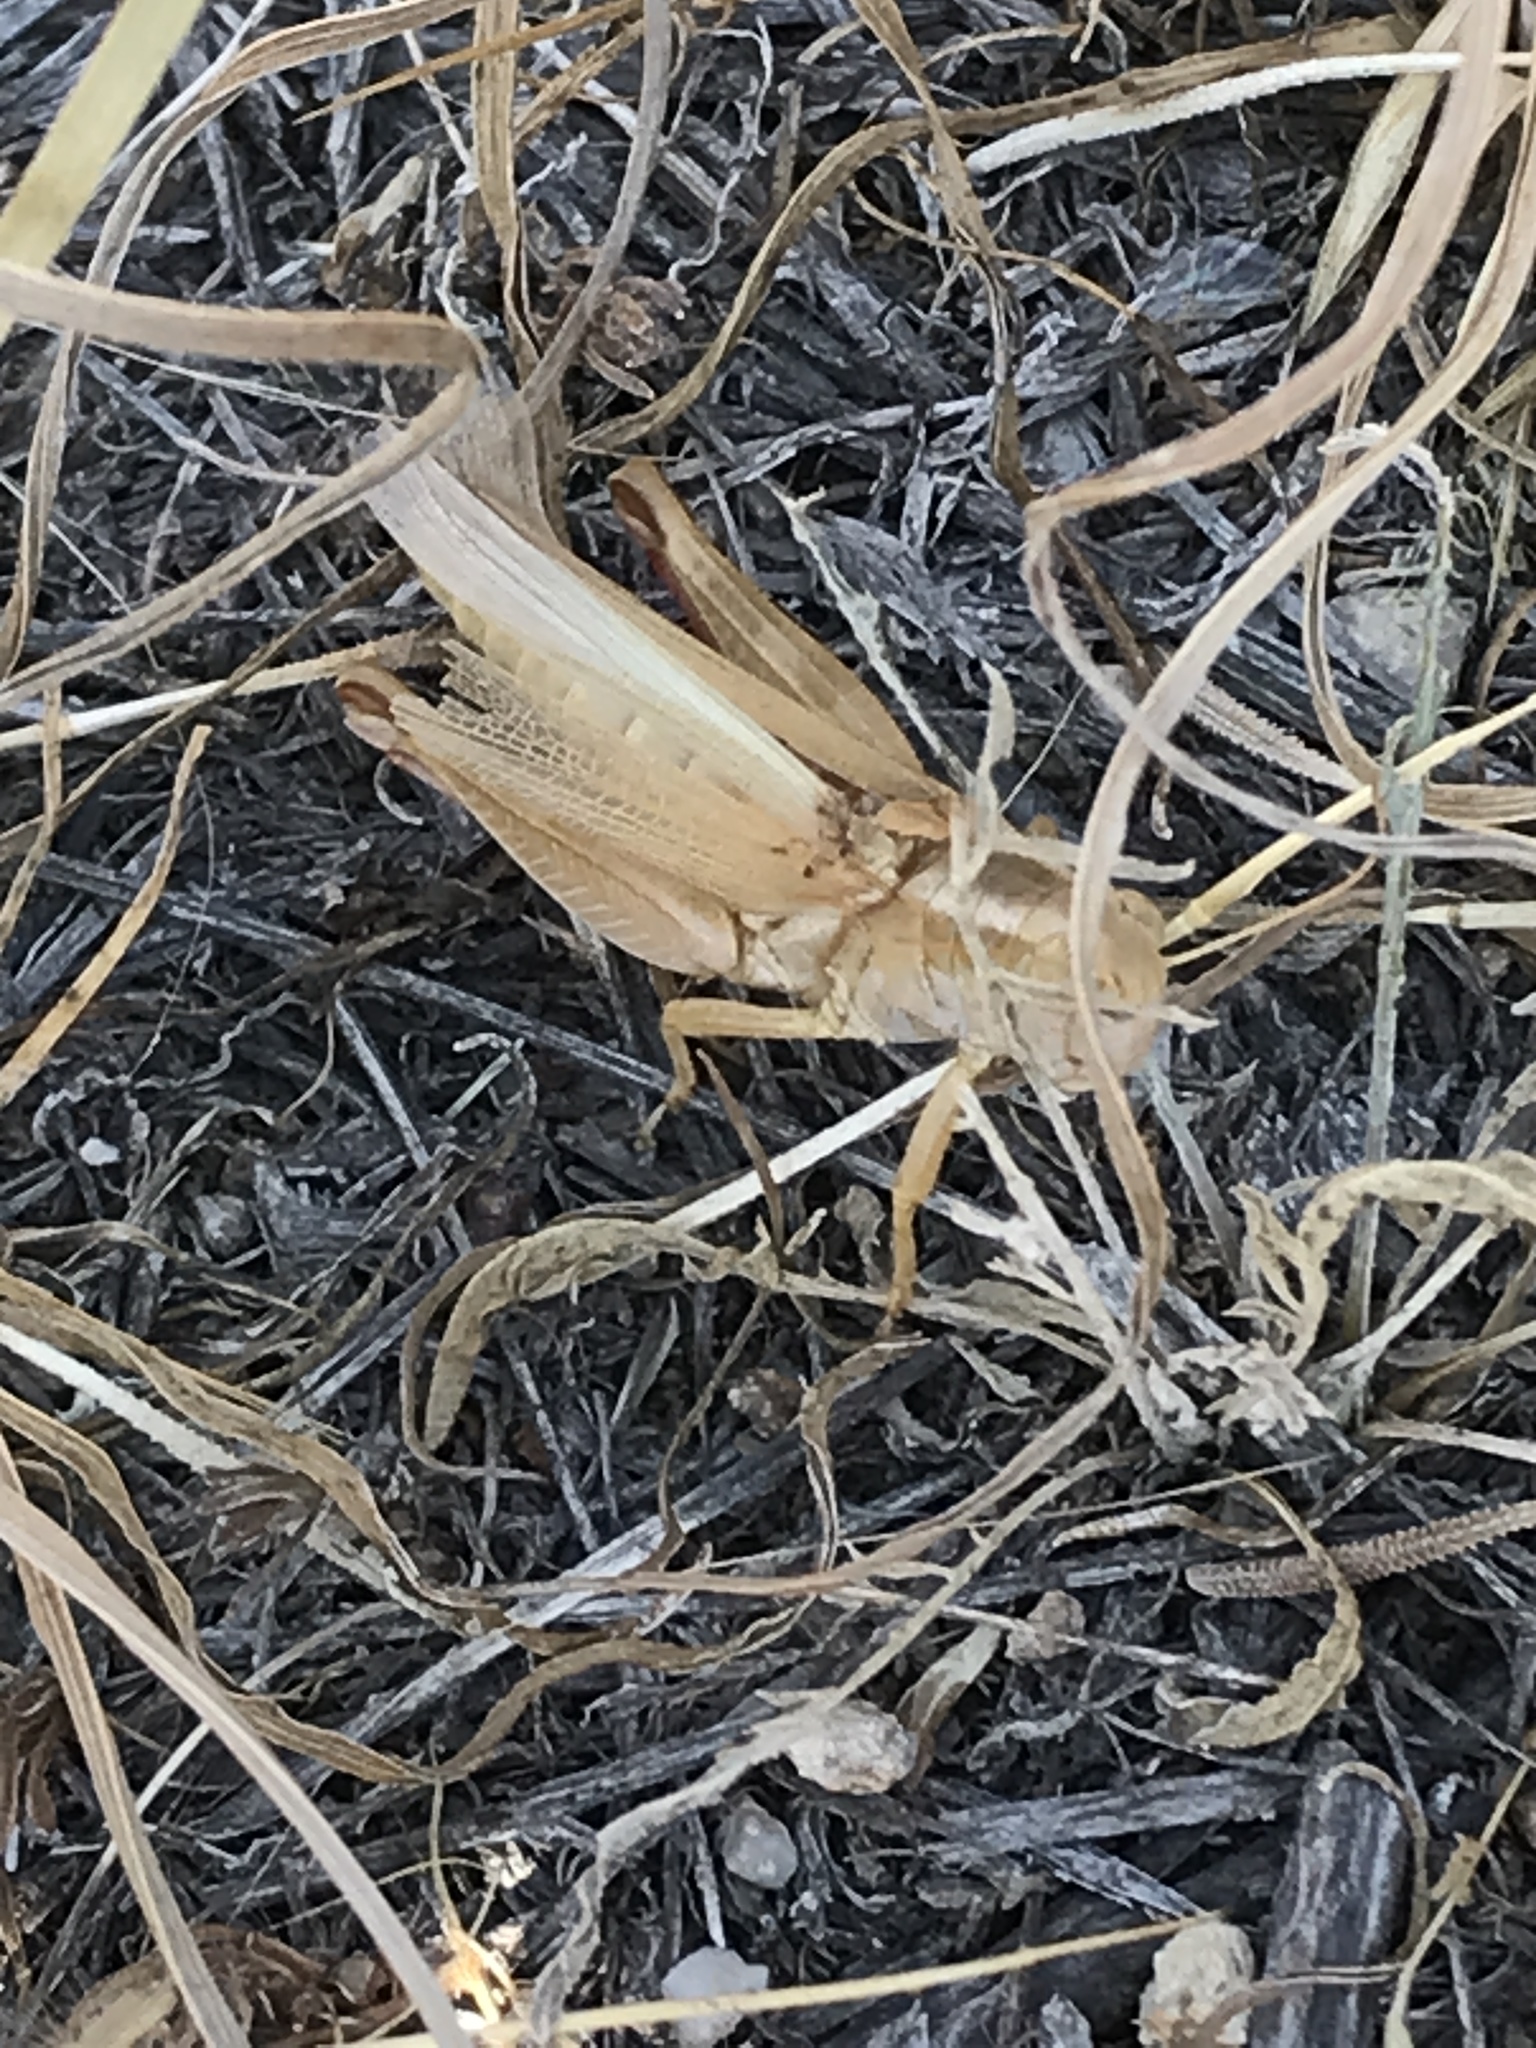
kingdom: Animalia
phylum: Arthropoda
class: Insecta
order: Orthoptera
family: Acrididae
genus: Melanoplus
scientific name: Melanoplus packardii
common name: Packard's grasshopper
